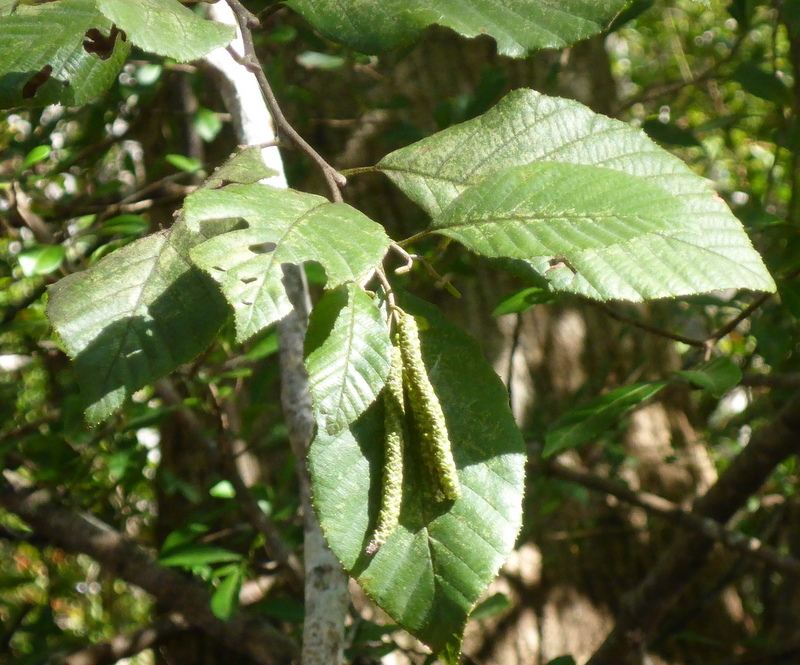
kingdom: Plantae
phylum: Tracheophyta
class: Magnoliopsida
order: Fagales
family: Betulaceae
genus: Alnus
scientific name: Alnus serrulata
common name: Hazel alder
